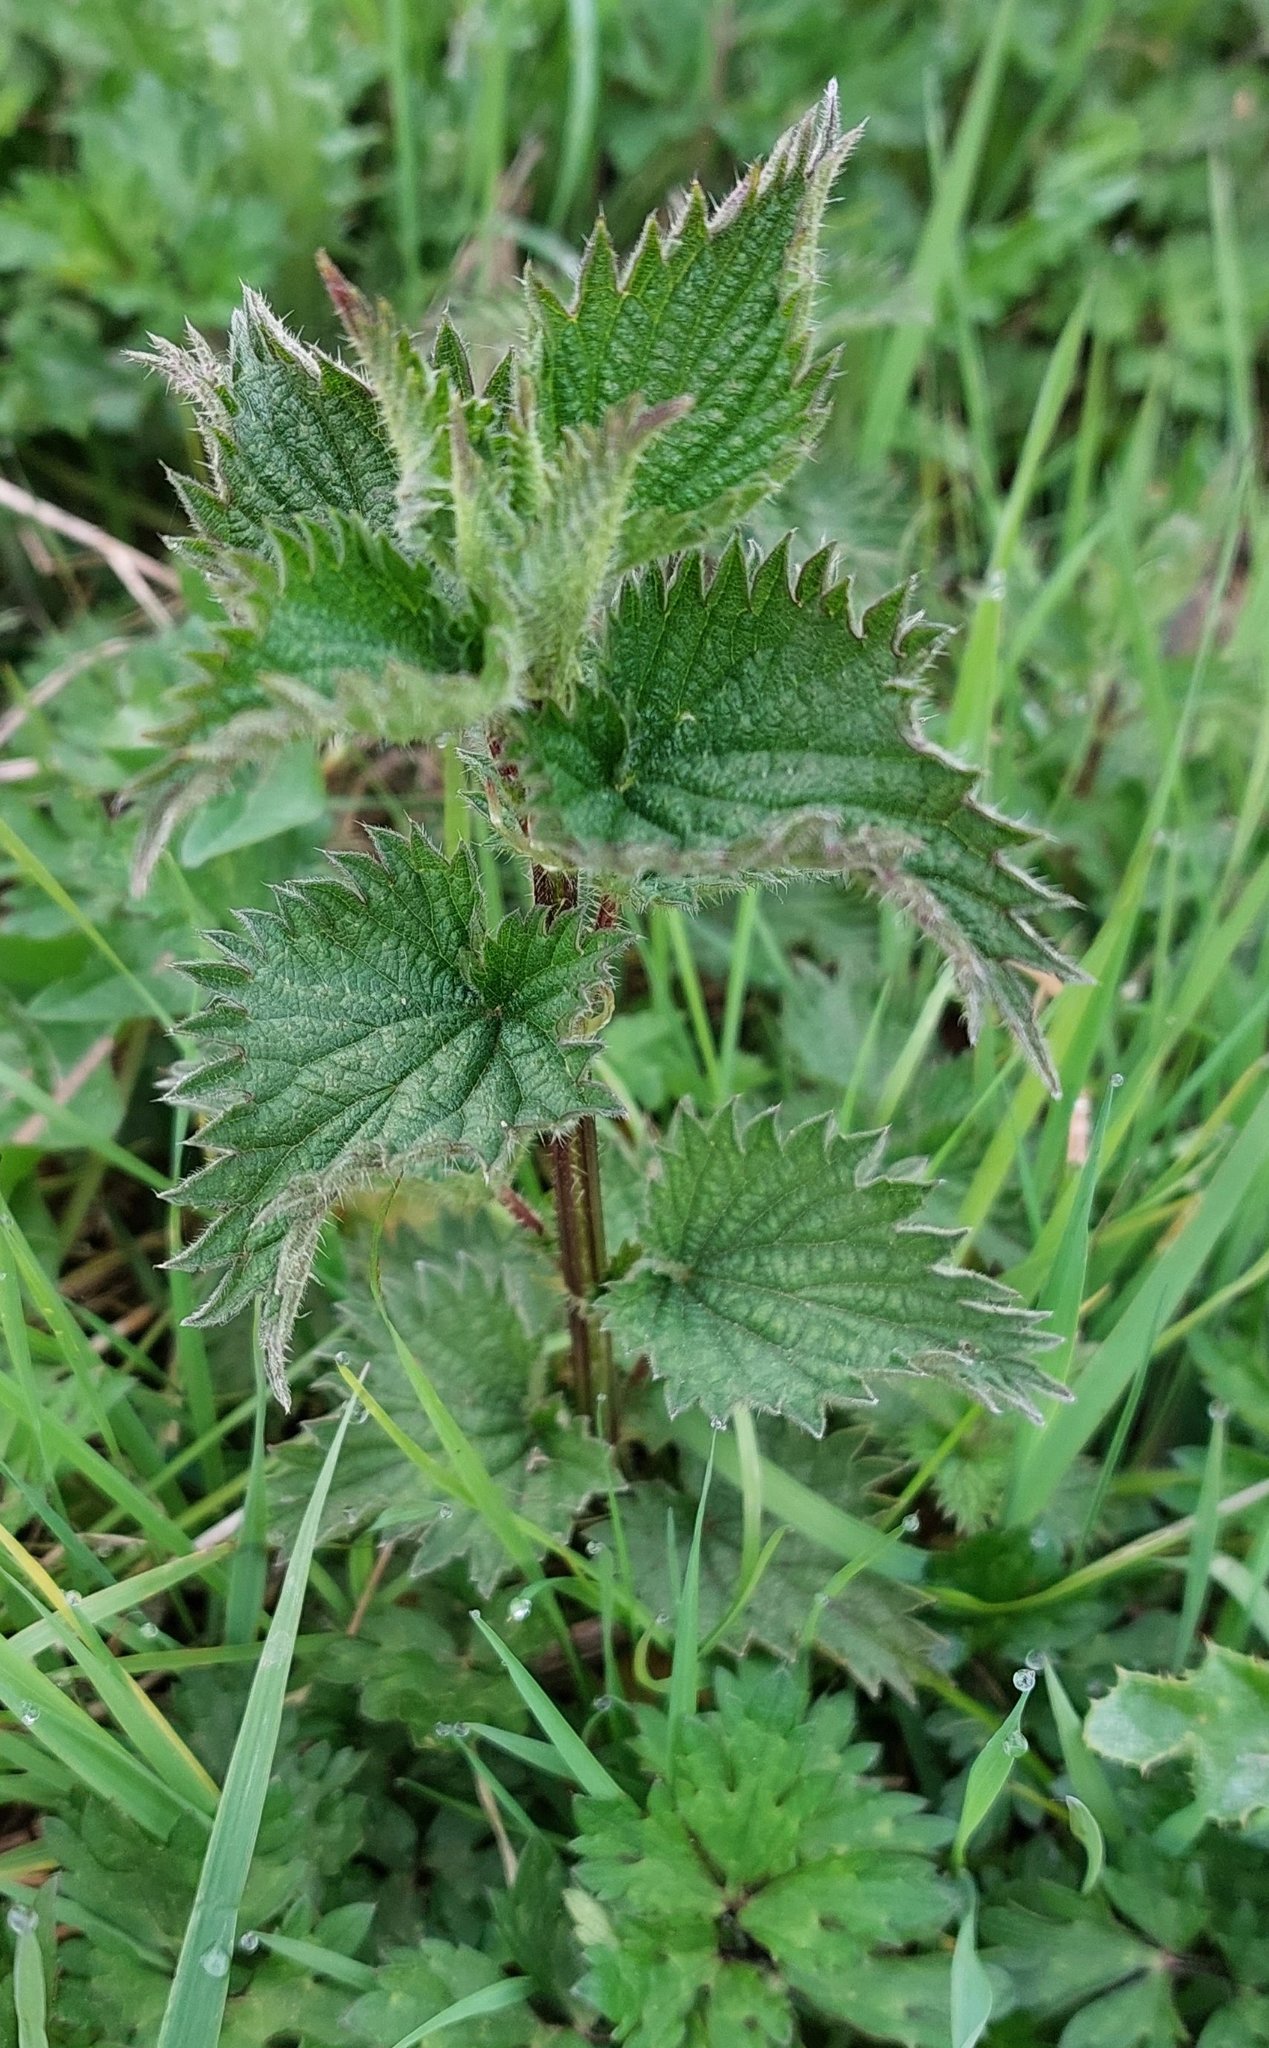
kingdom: Plantae
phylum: Tracheophyta
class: Magnoliopsida
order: Rosales
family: Urticaceae
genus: Urtica
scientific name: Urtica dioica
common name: Common nettle
